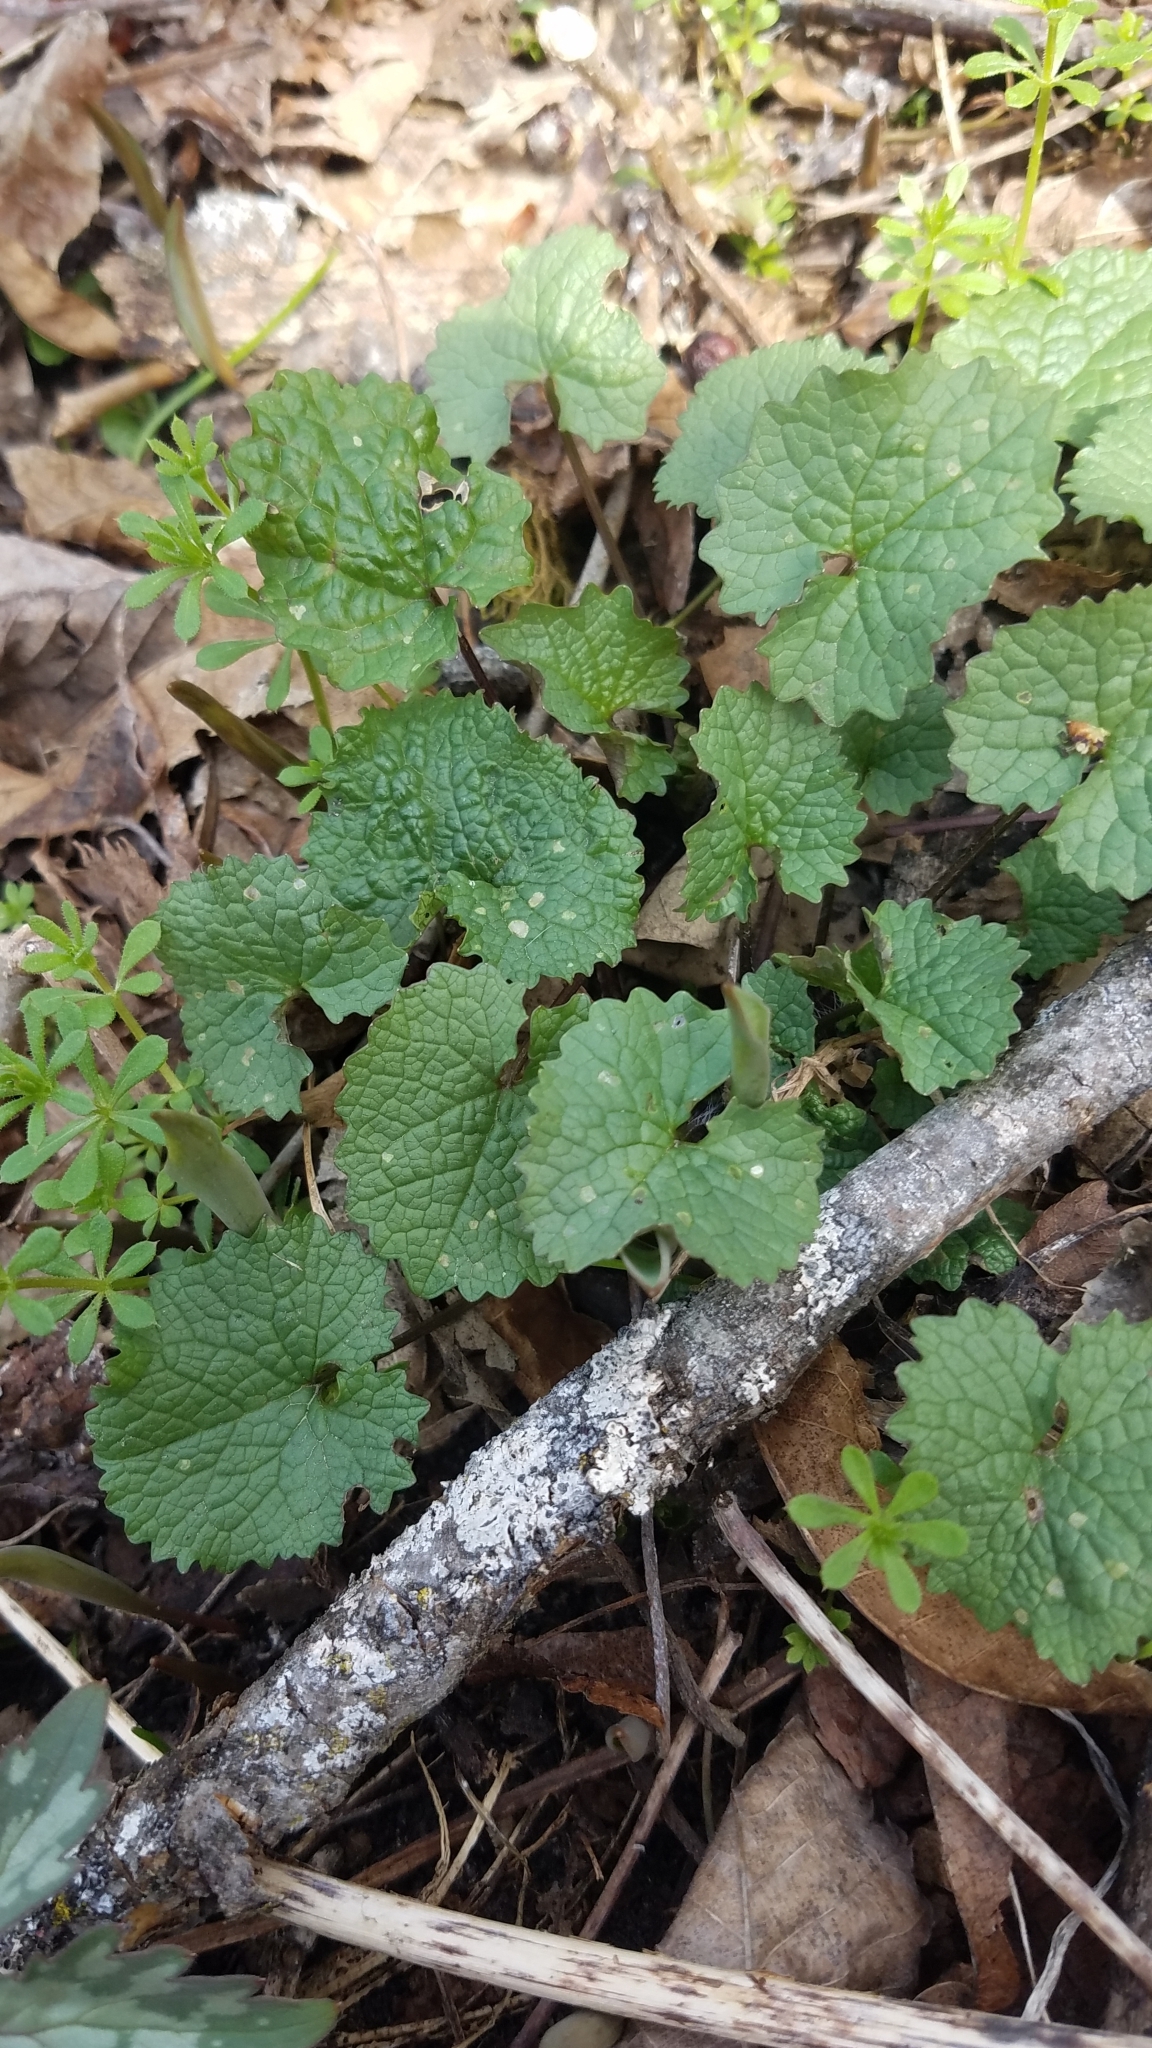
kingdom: Plantae
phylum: Tracheophyta
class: Magnoliopsida
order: Brassicales
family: Brassicaceae
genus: Alliaria
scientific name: Alliaria petiolata
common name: Garlic mustard
